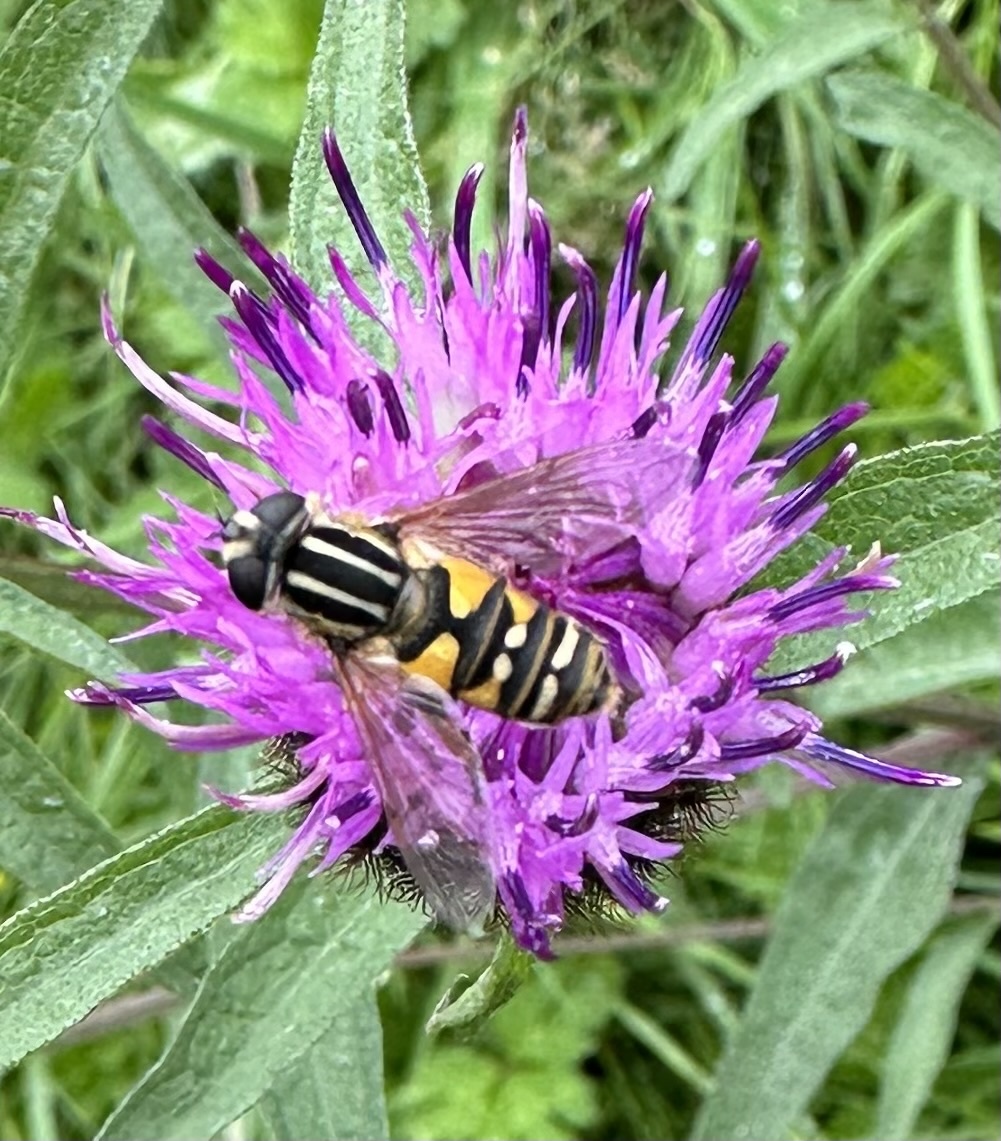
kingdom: Animalia
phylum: Arthropoda
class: Insecta
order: Diptera
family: Syrphidae
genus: Helophilus
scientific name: Helophilus pendulus
